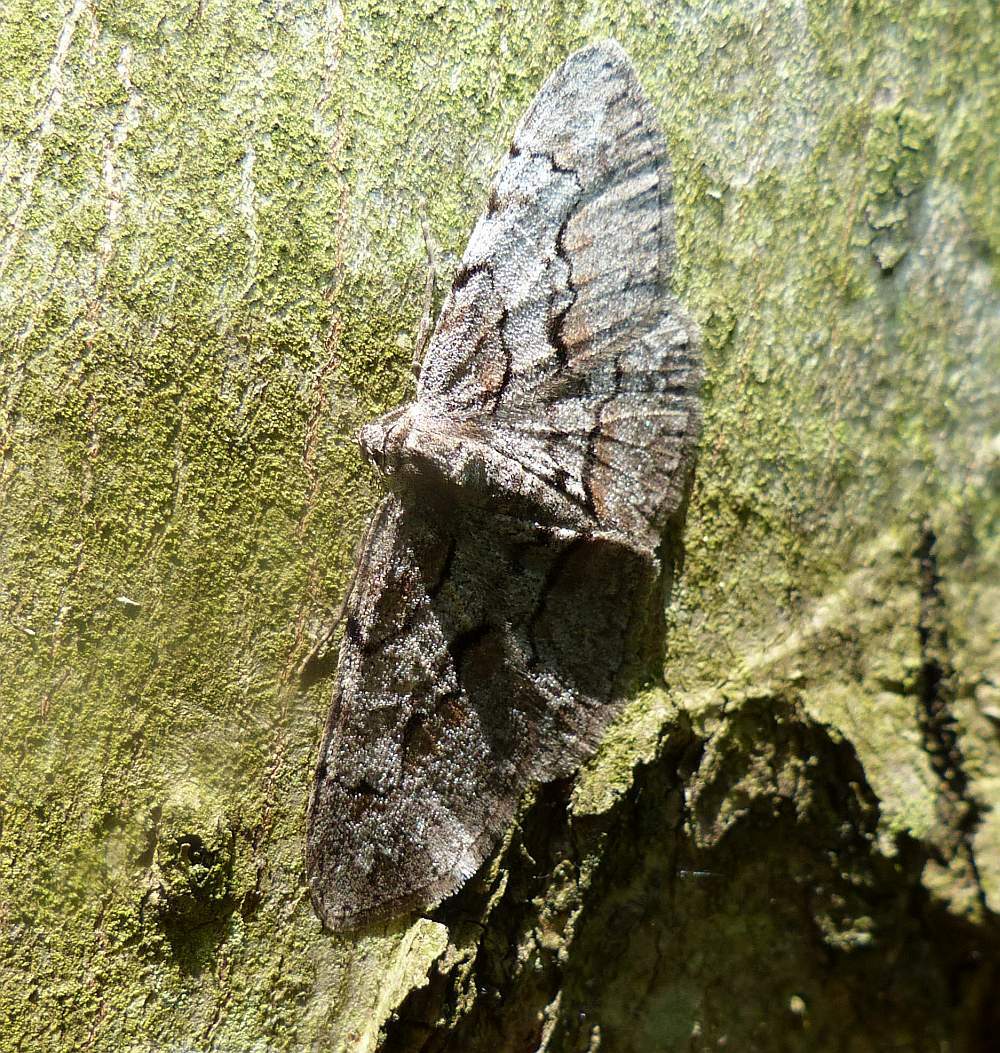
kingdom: Animalia
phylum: Arthropoda
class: Insecta
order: Lepidoptera
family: Geometridae
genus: Iridopsis
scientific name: Iridopsis humaria
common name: Small purplish gray
